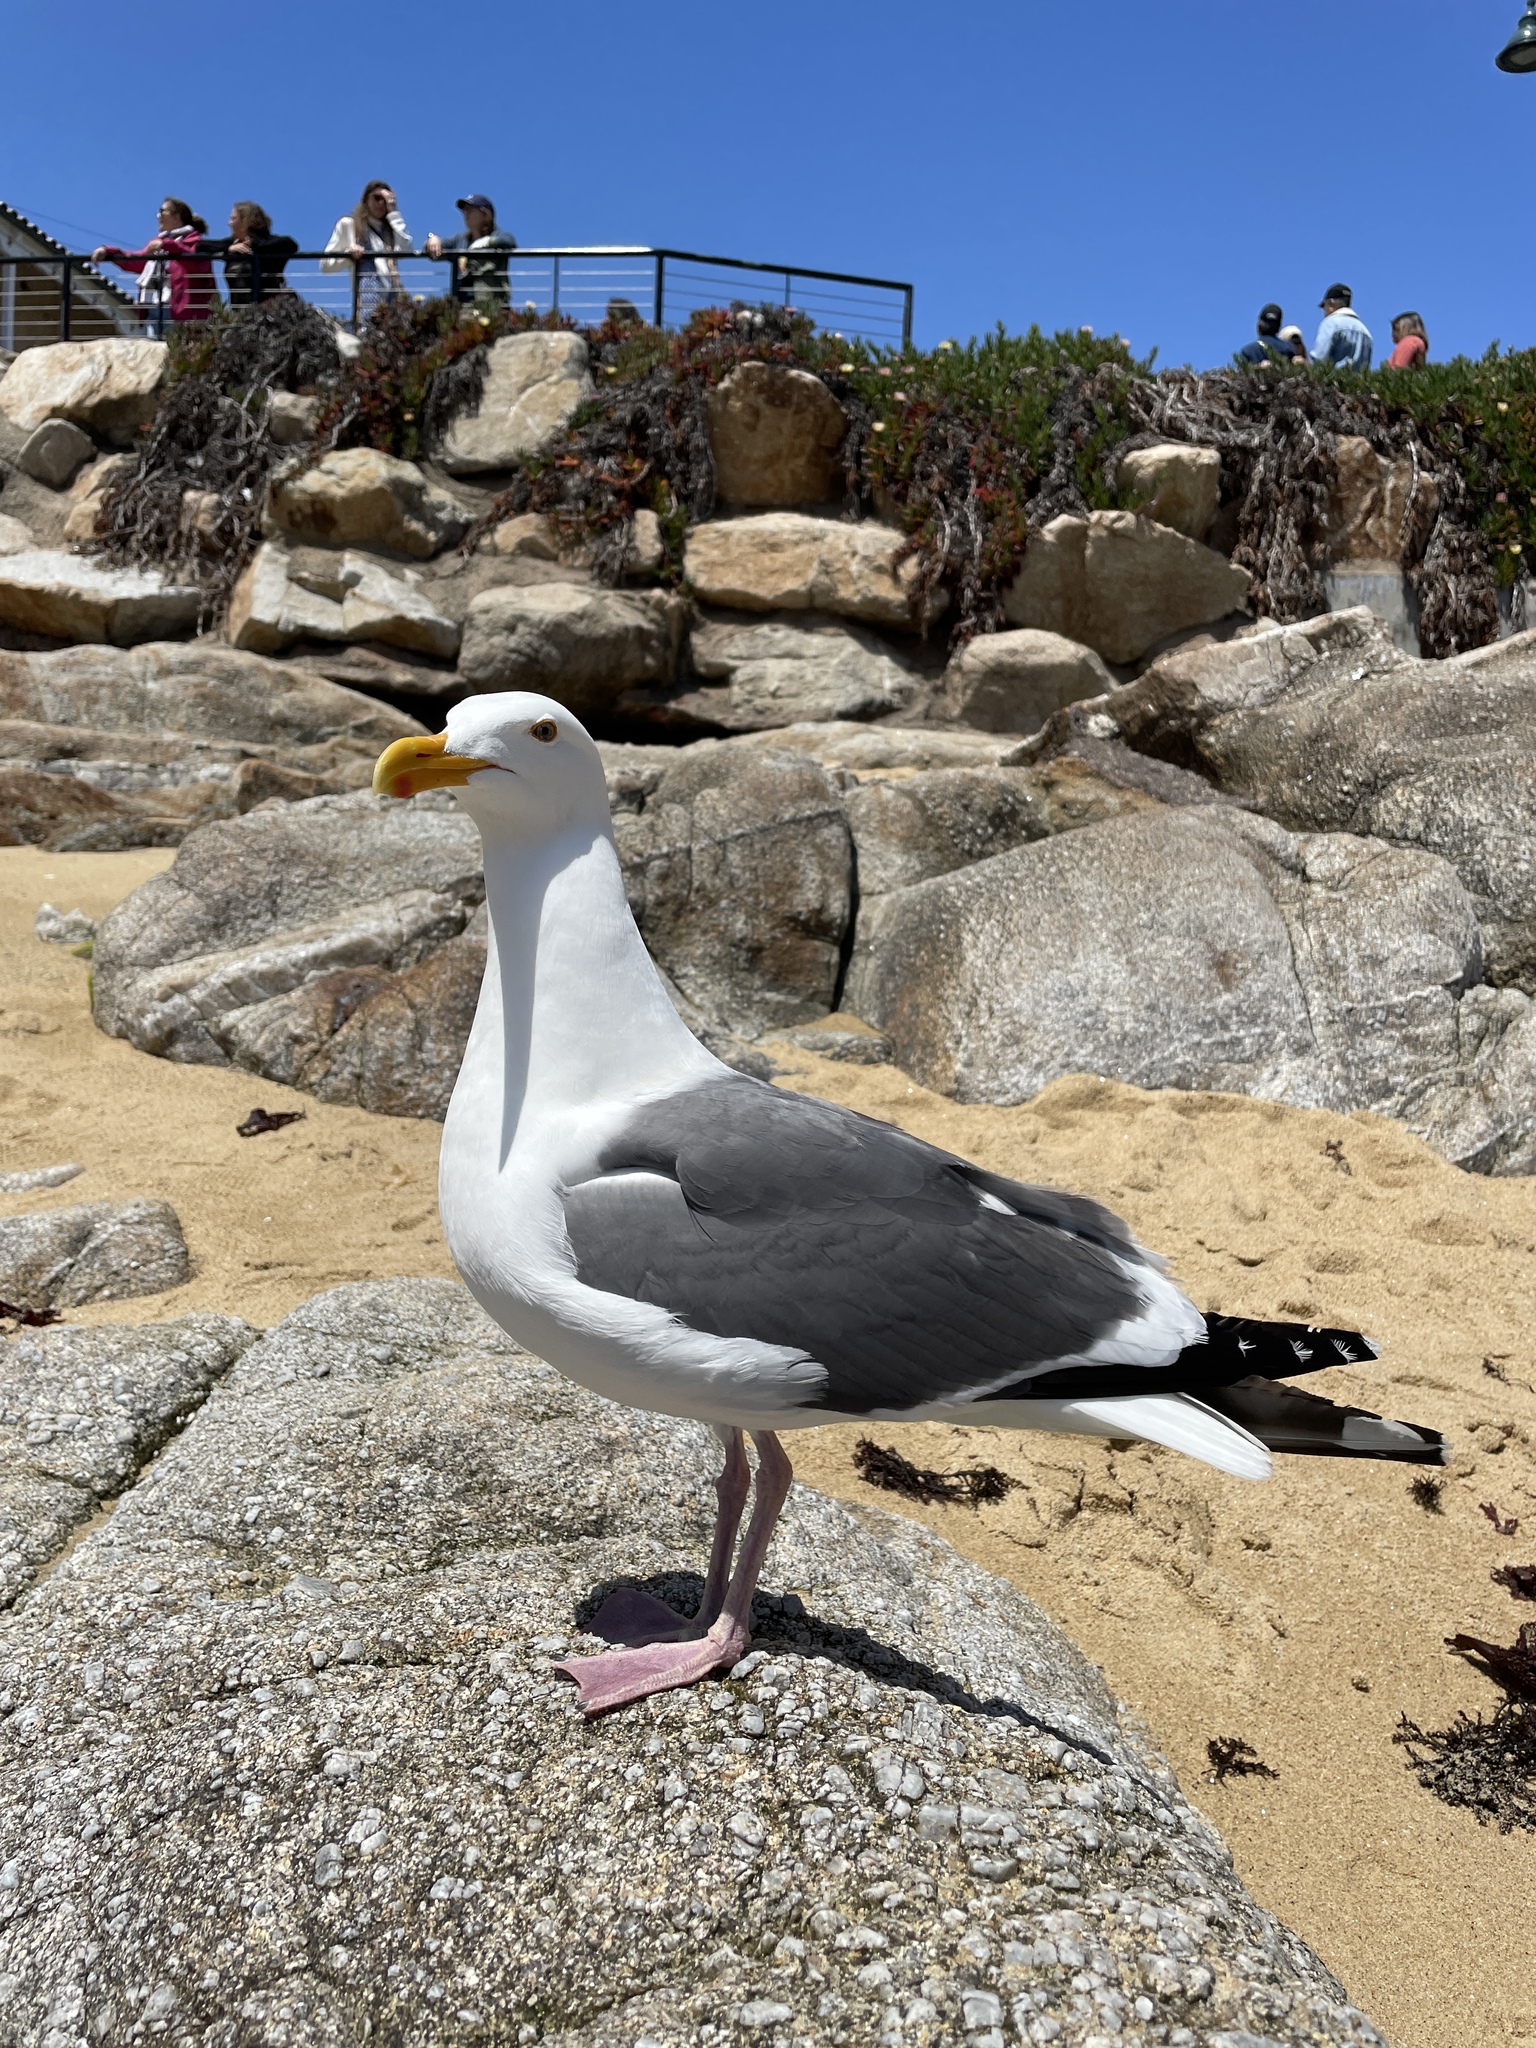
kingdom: Animalia
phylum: Chordata
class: Aves
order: Charadriiformes
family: Laridae
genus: Larus
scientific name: Larus occidentalis
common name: Western gull
